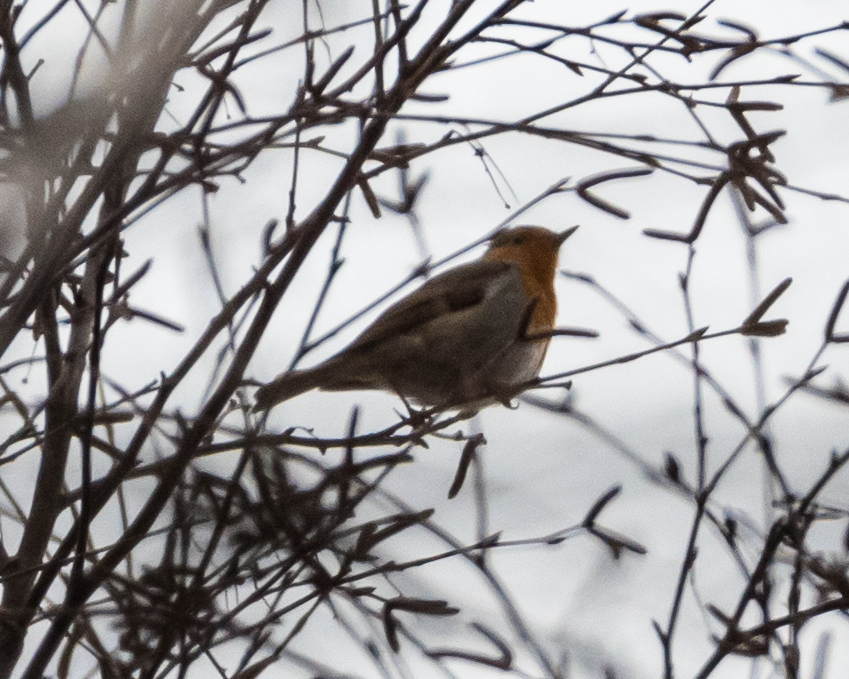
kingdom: Animalia
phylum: Chordata
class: Aves
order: Passeriformes
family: Muscicapidae
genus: Erithacus
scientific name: Erithacus rubecula
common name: European robin
